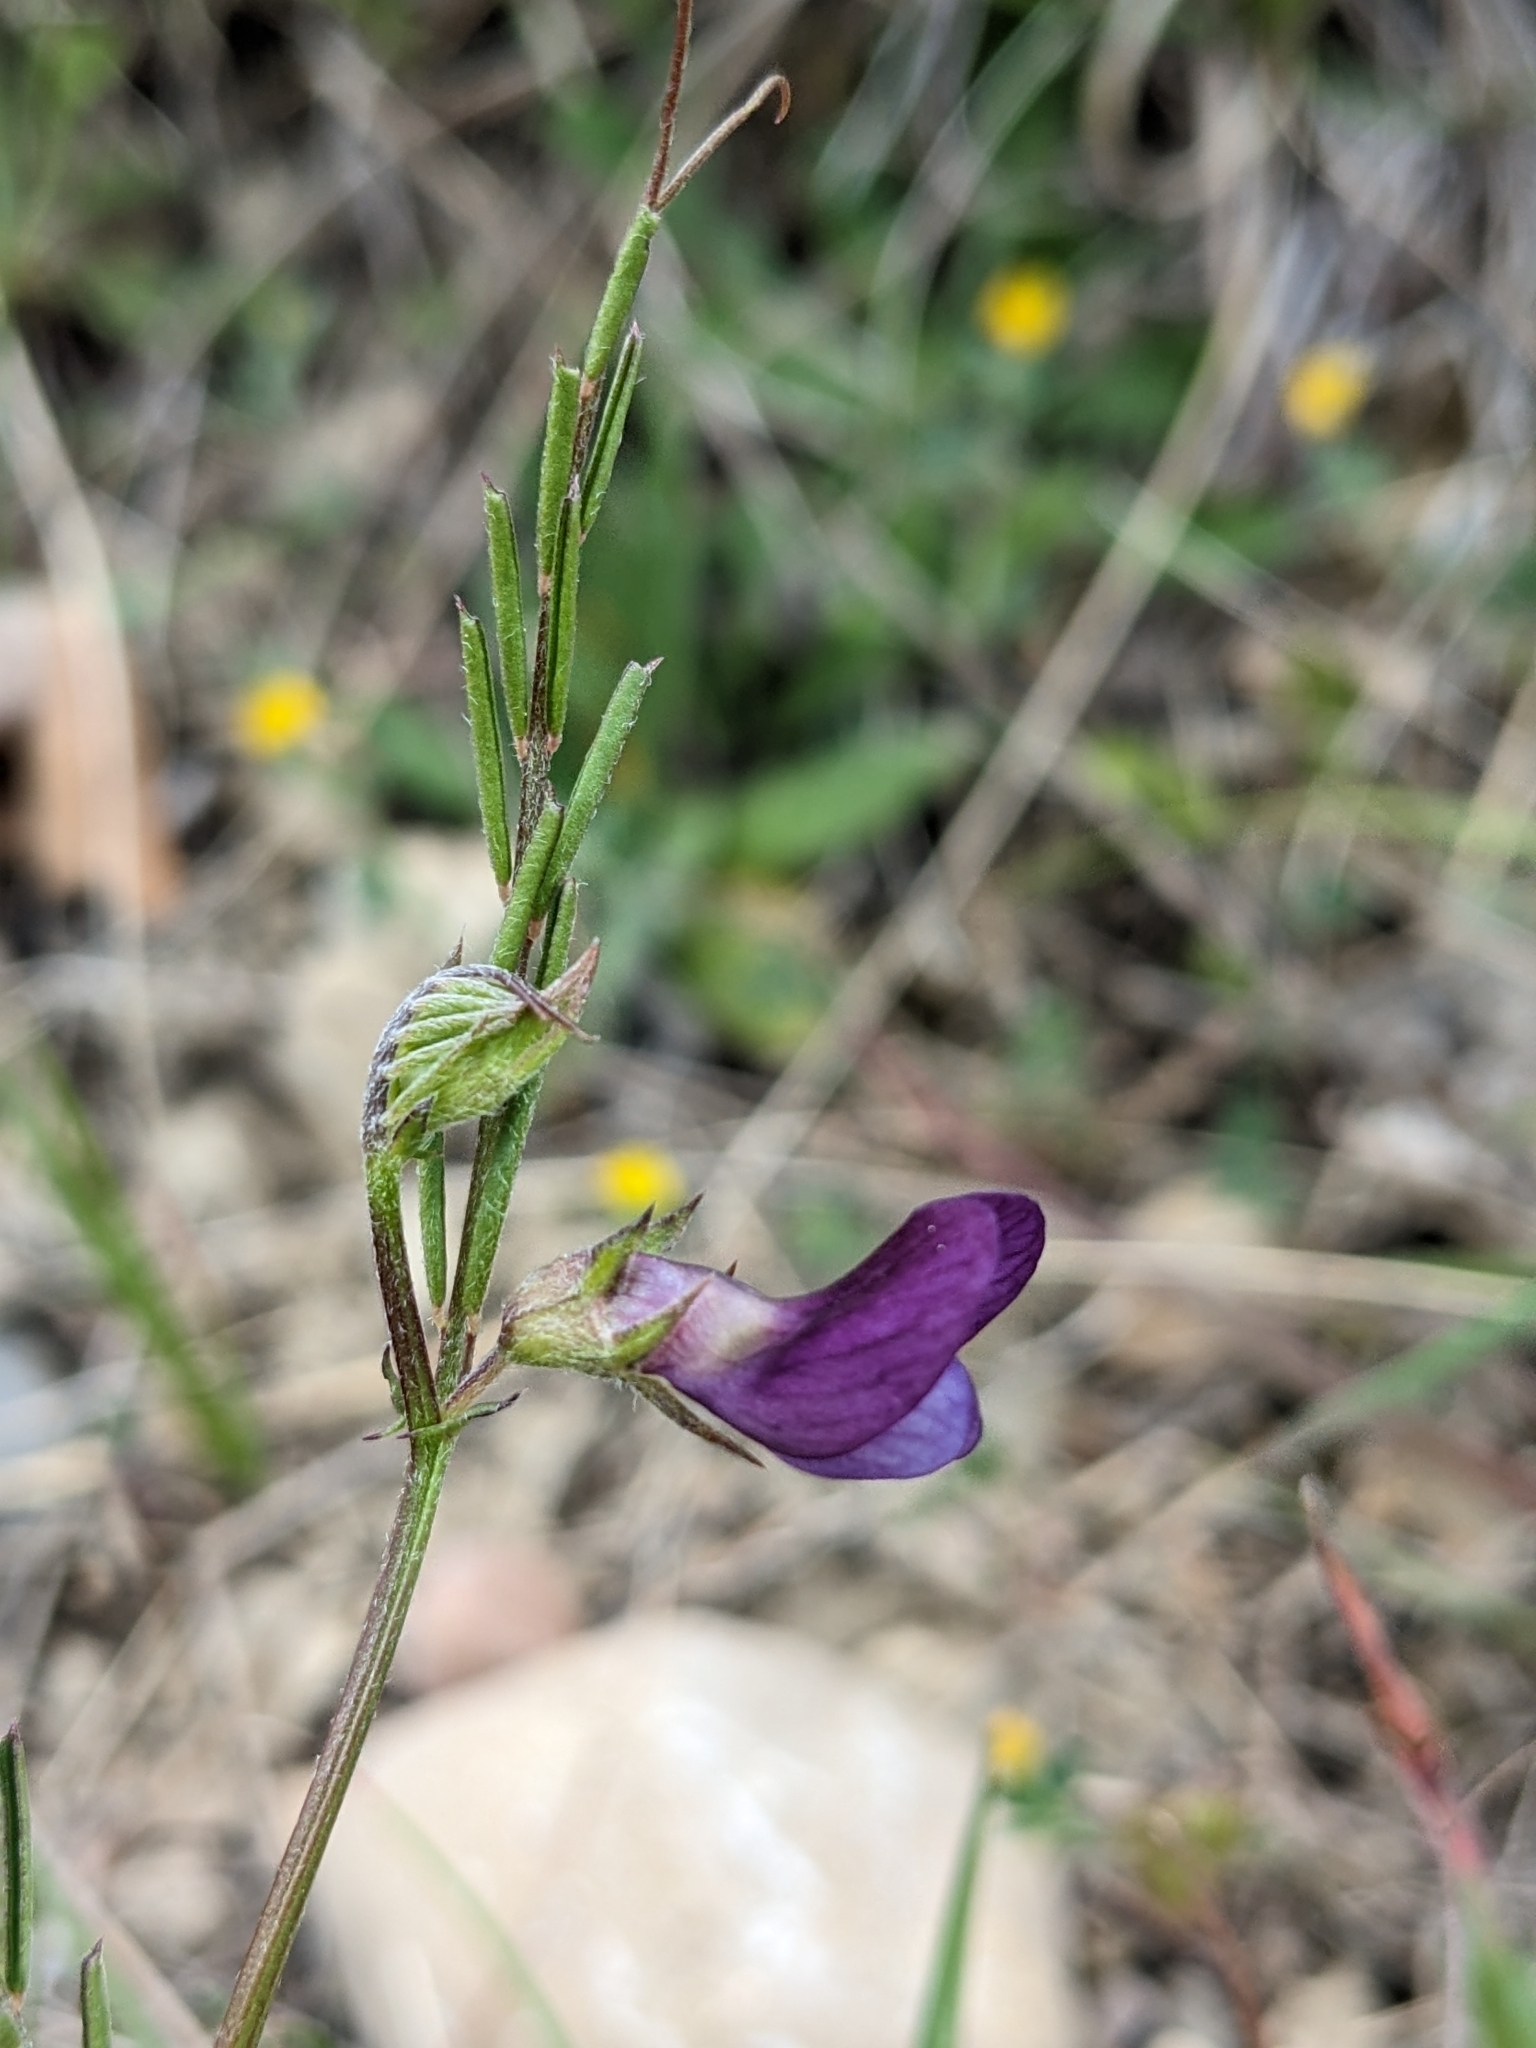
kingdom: Plantae
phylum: Tracheophyta
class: Magnoliopsida
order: Fabales
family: Fabaceae
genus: Vicia
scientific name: Vicia peregrina
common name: Broad-pod vetch
